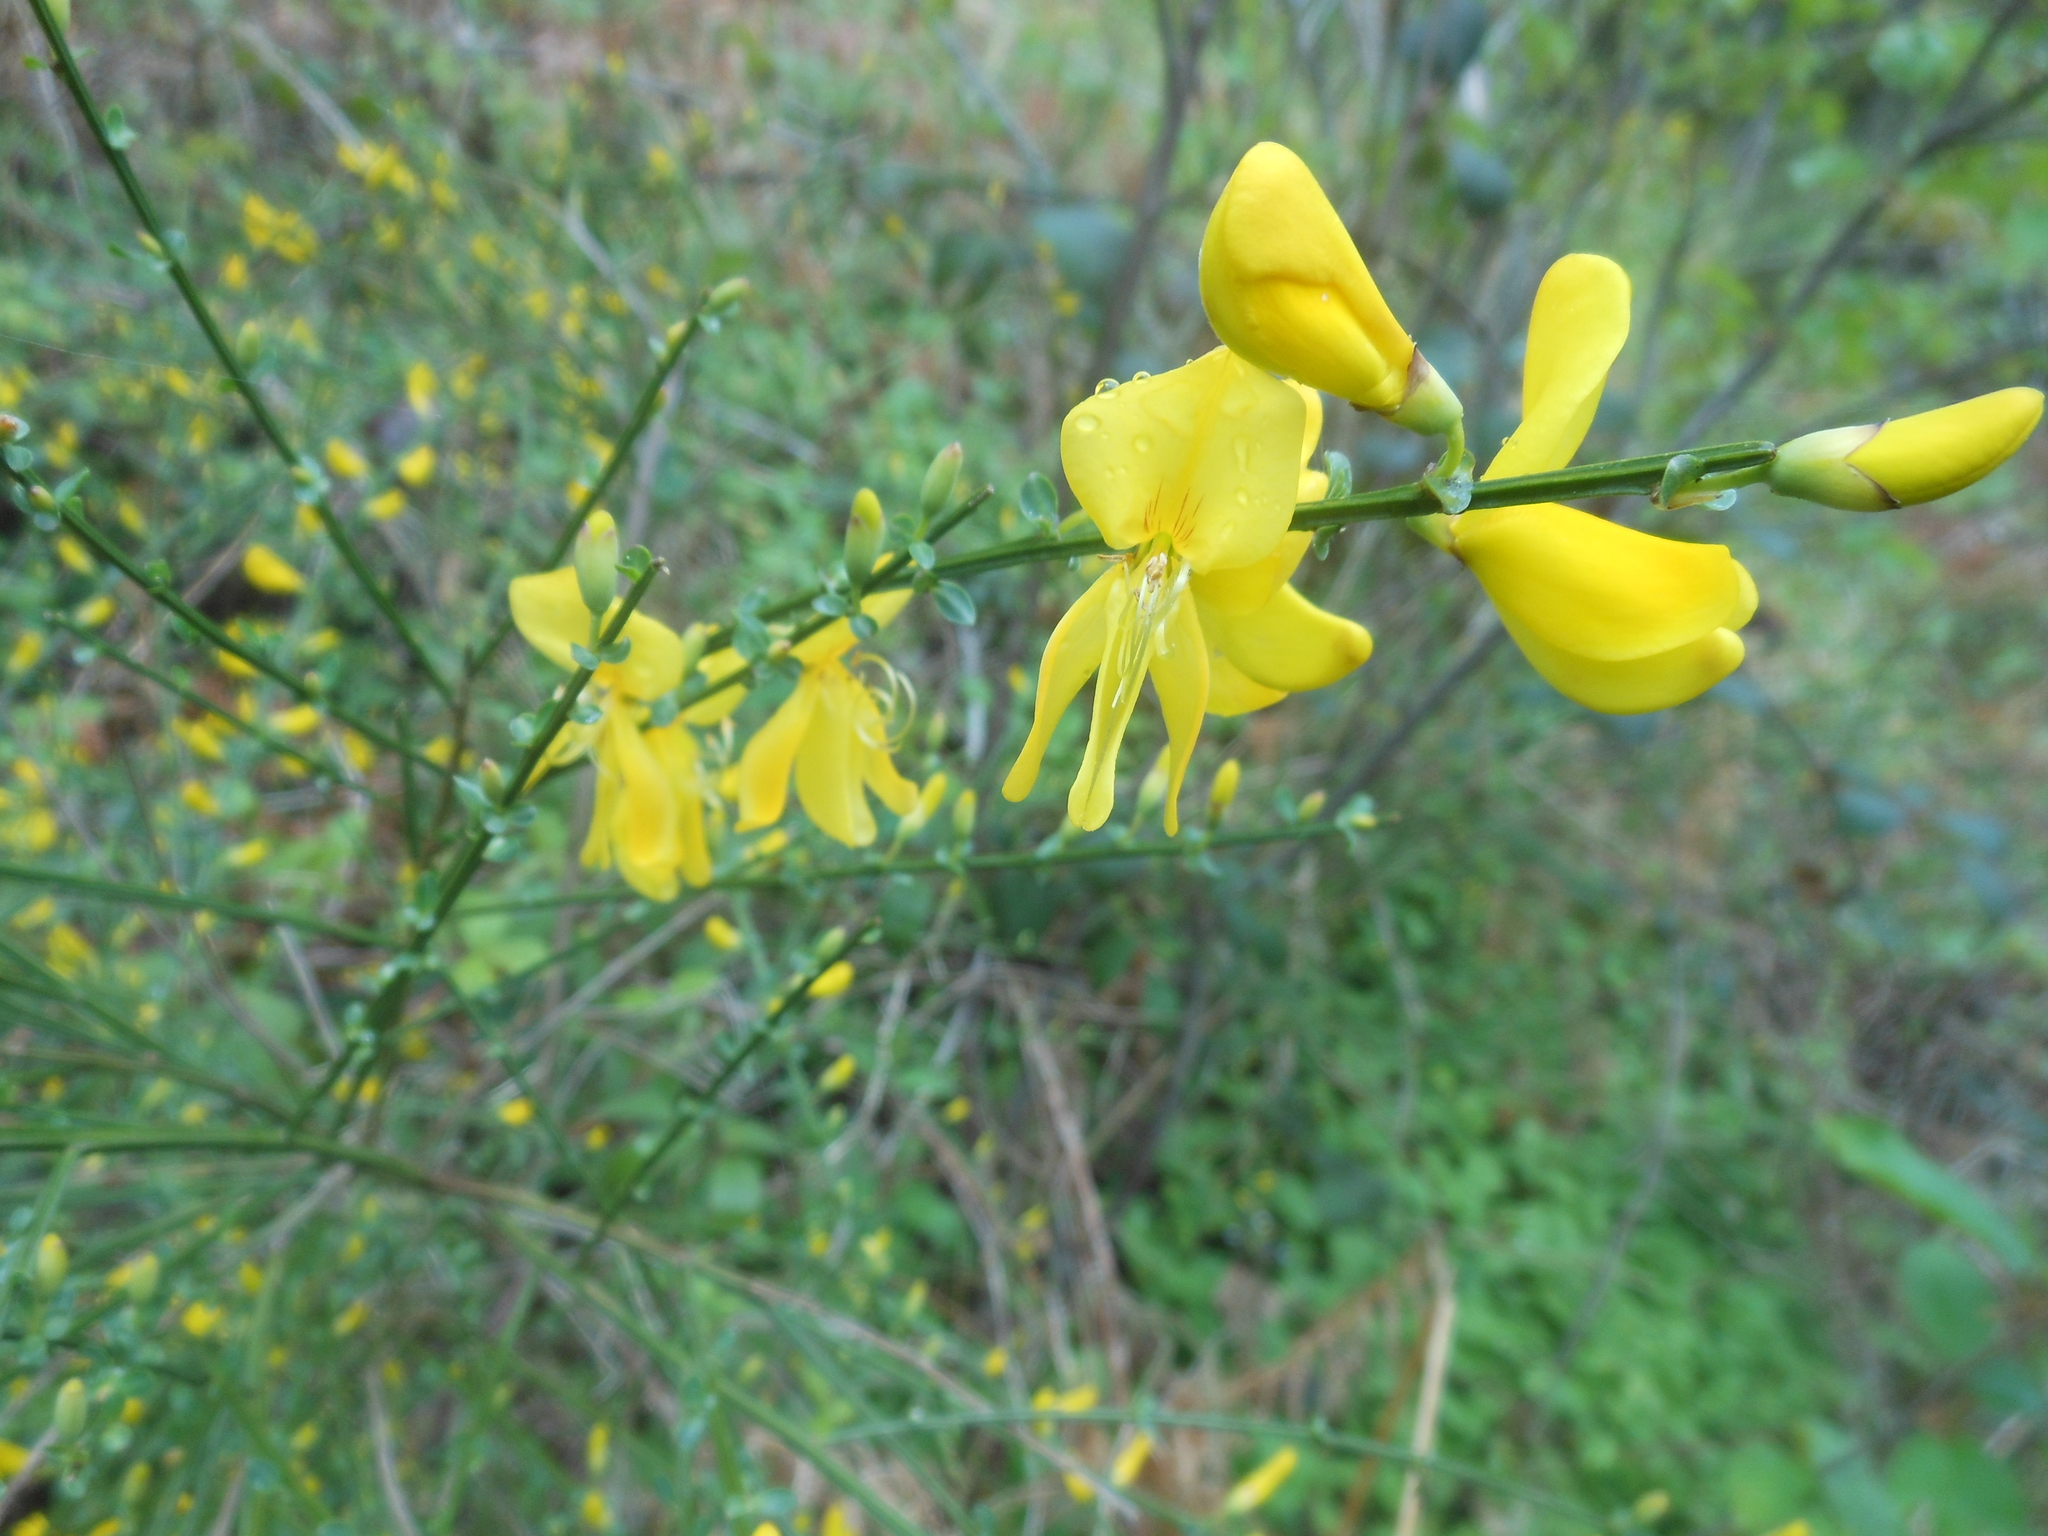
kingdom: Plantae
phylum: Tracheophyta
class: Magnoliopsida
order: Fabales
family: Fabaceae
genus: Cytisus
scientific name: Cytisus scoparius
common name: Scotch broom
